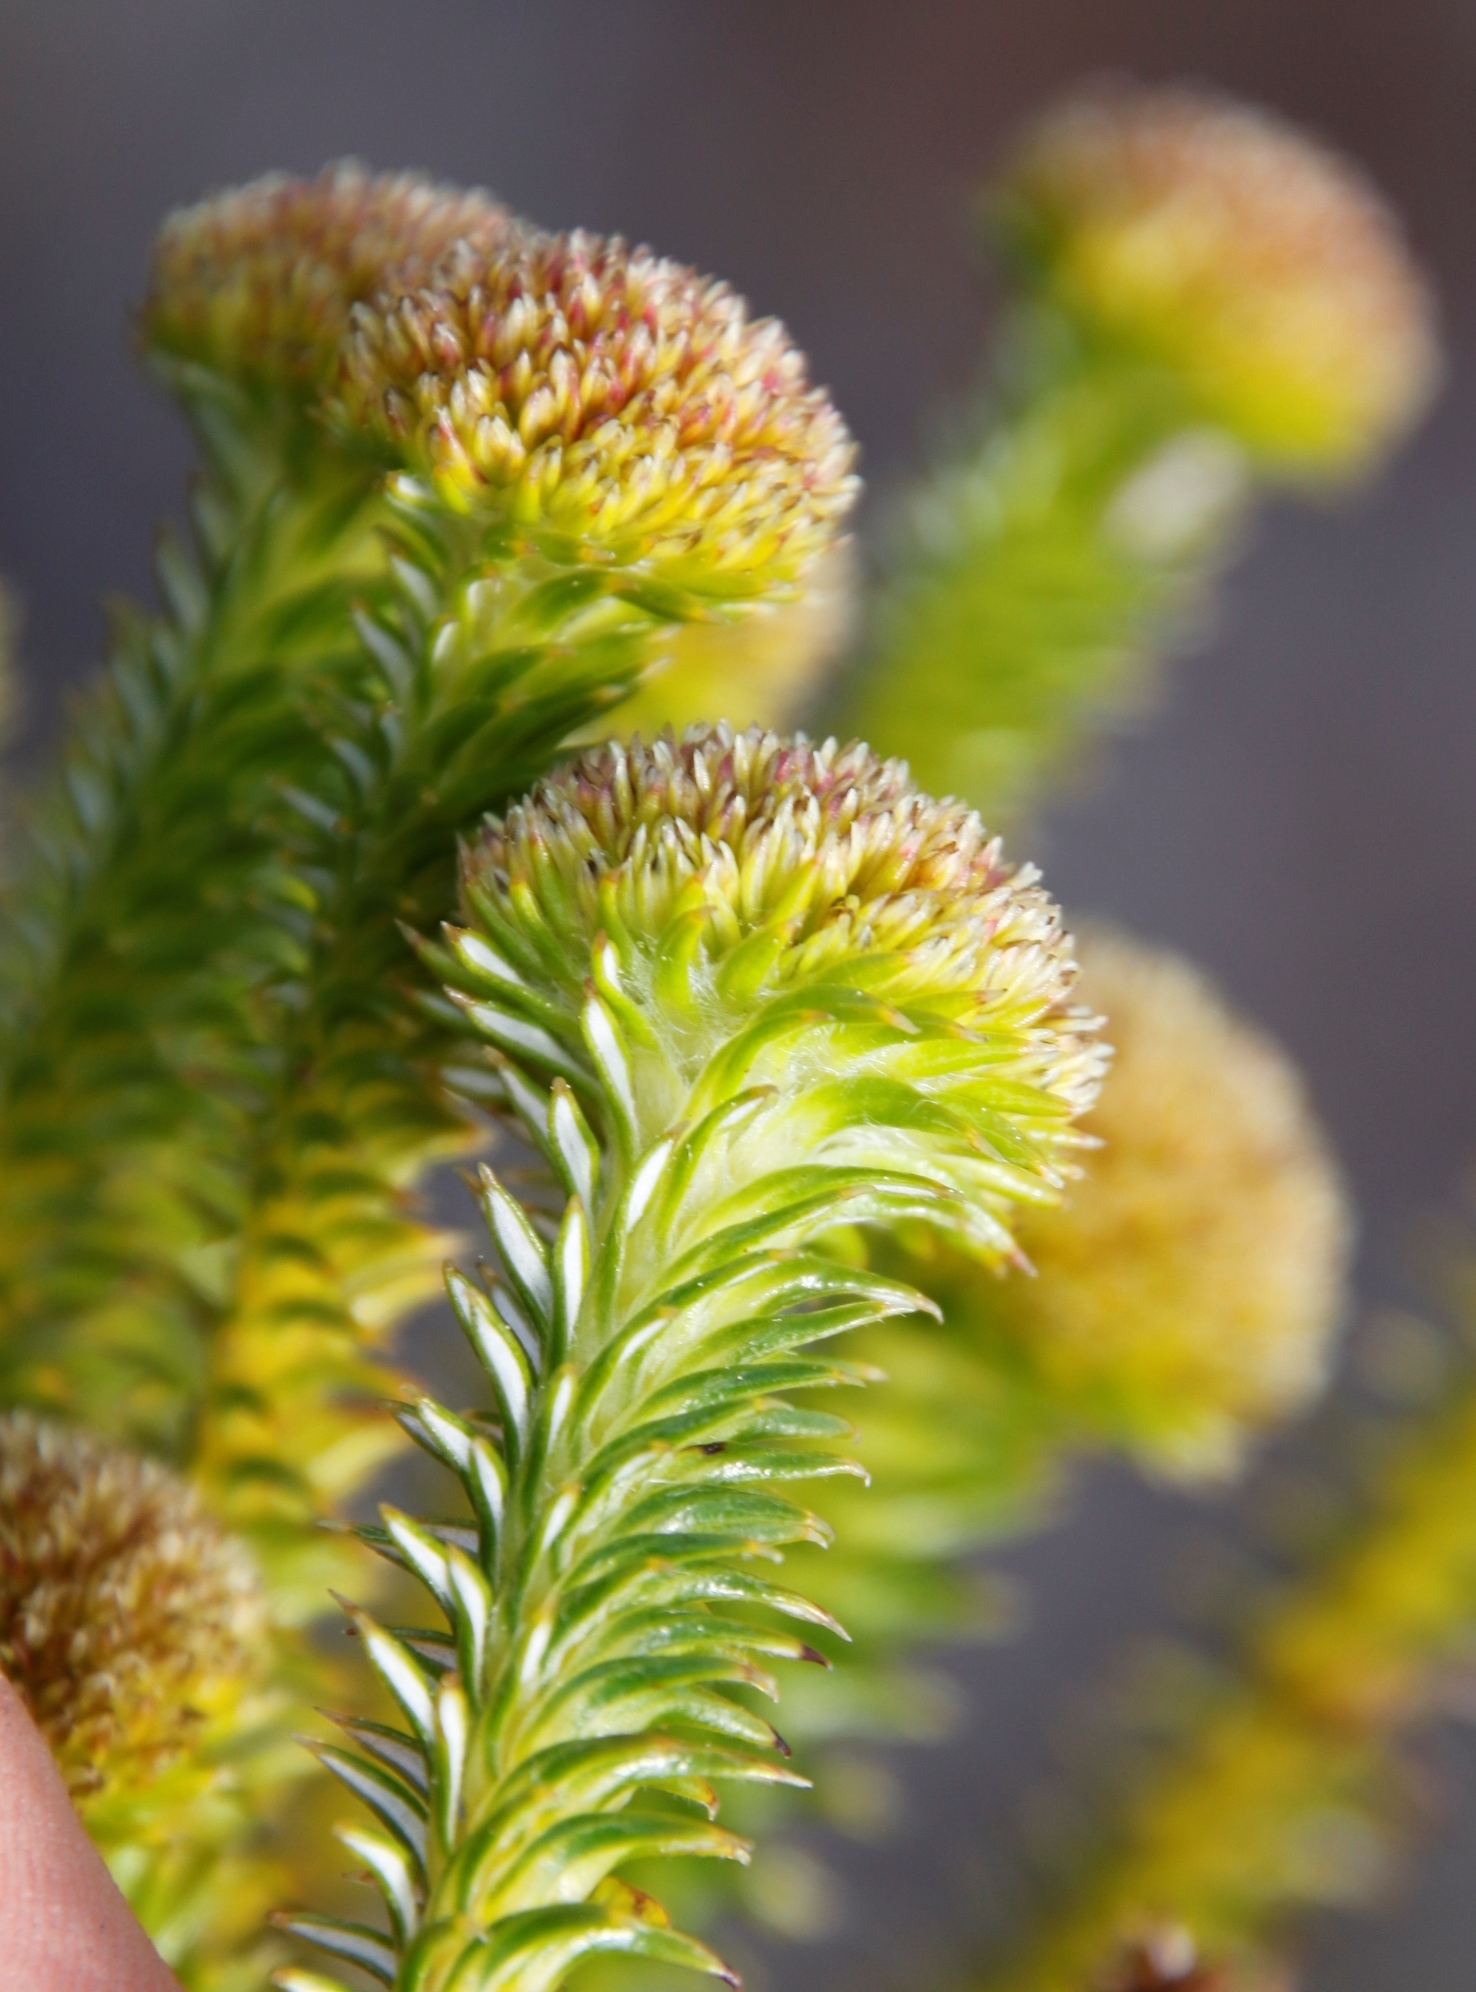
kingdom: Plantae
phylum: Tracheophyta
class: Magnoliopsida
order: Asterales
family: Asteraceae
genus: Stoebe
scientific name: Stoebe aethiopica
